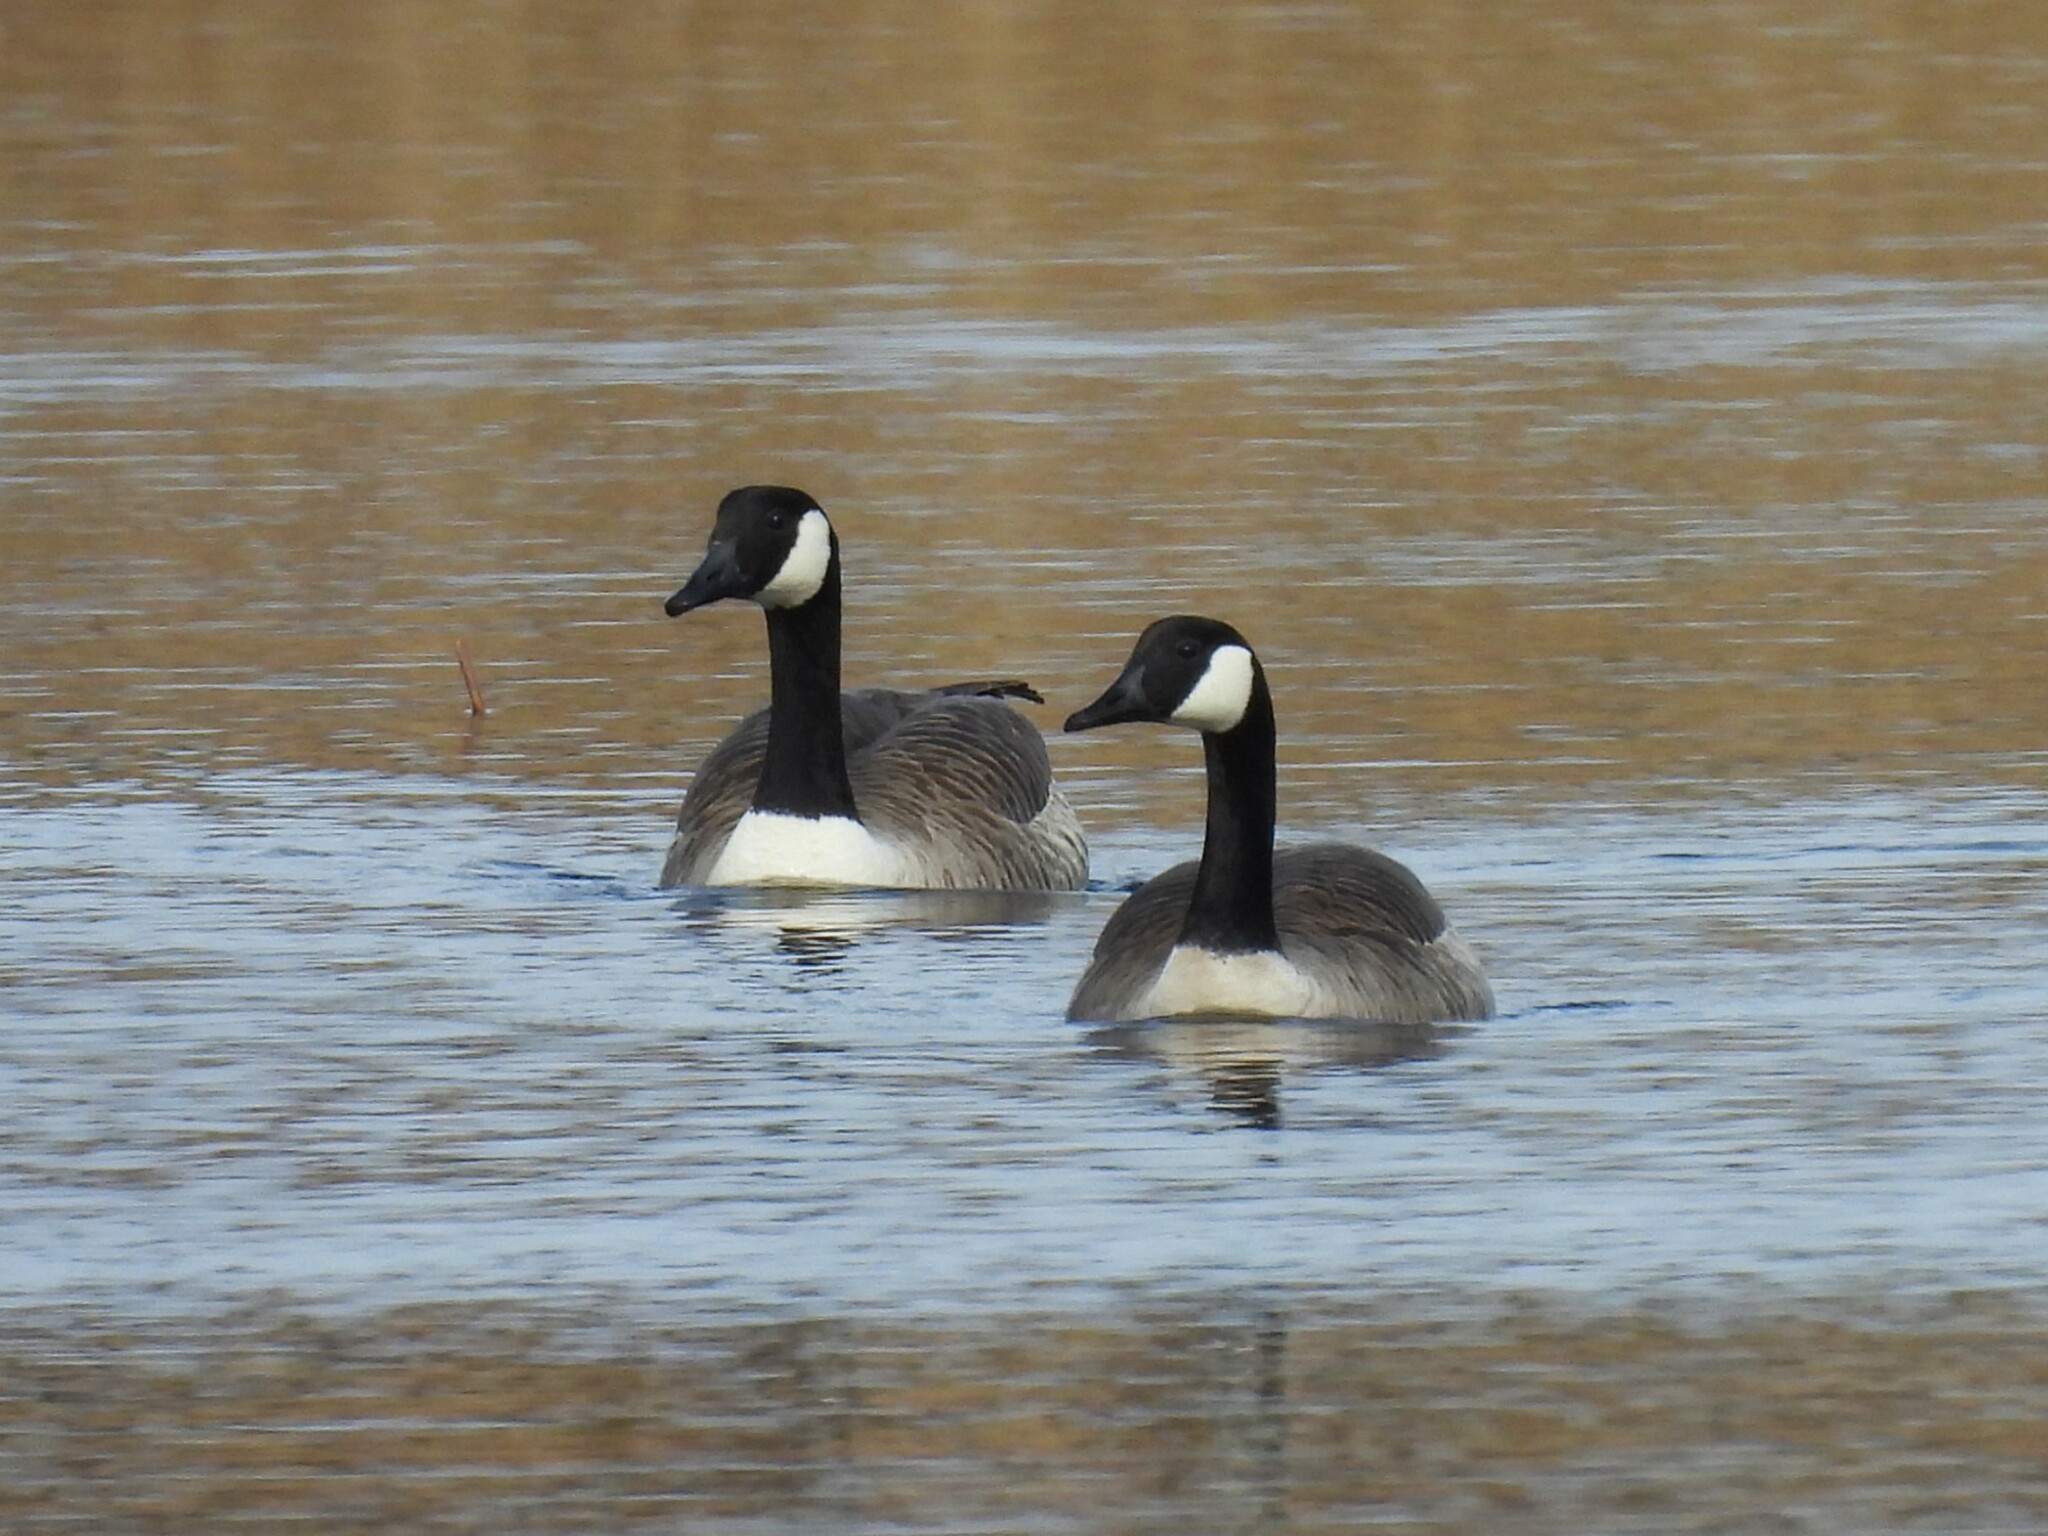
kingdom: Animalia
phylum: Chordata
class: Aves
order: Anseriformes
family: Anatidae
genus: Branta
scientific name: Branta canadensis
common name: Canada goose
